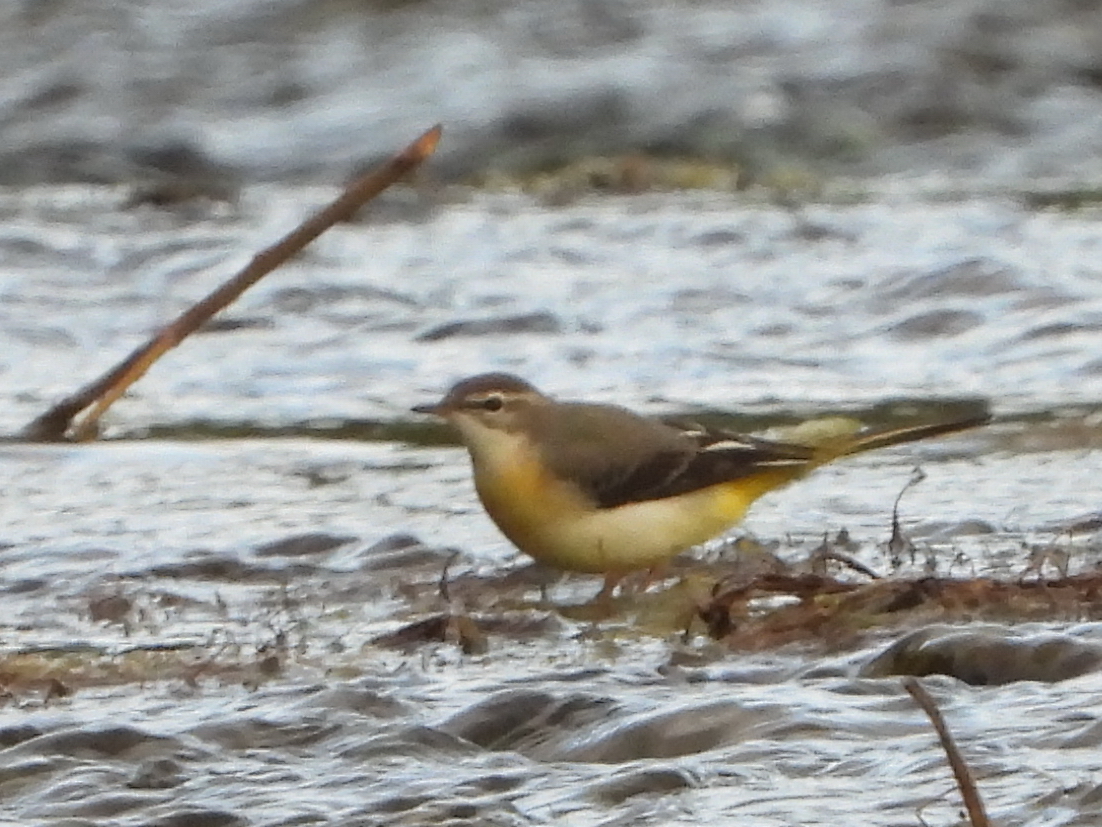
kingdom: Animalia
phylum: Chordata
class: Aves
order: Passeriformes
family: Motacillidae
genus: Motacilla
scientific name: Motacilla cinerea
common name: Grey wagtail
